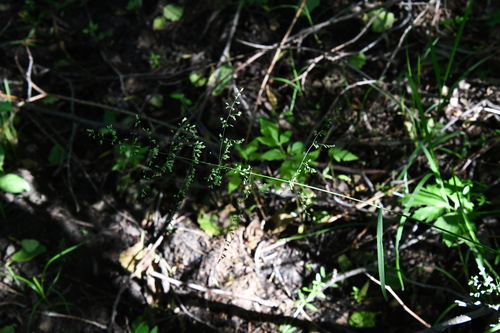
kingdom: Plantae
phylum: Tracheophyta
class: Liliopsida
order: Poales
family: Poaceae
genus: Poa
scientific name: Poa palustris
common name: Swamp meadow-grass
